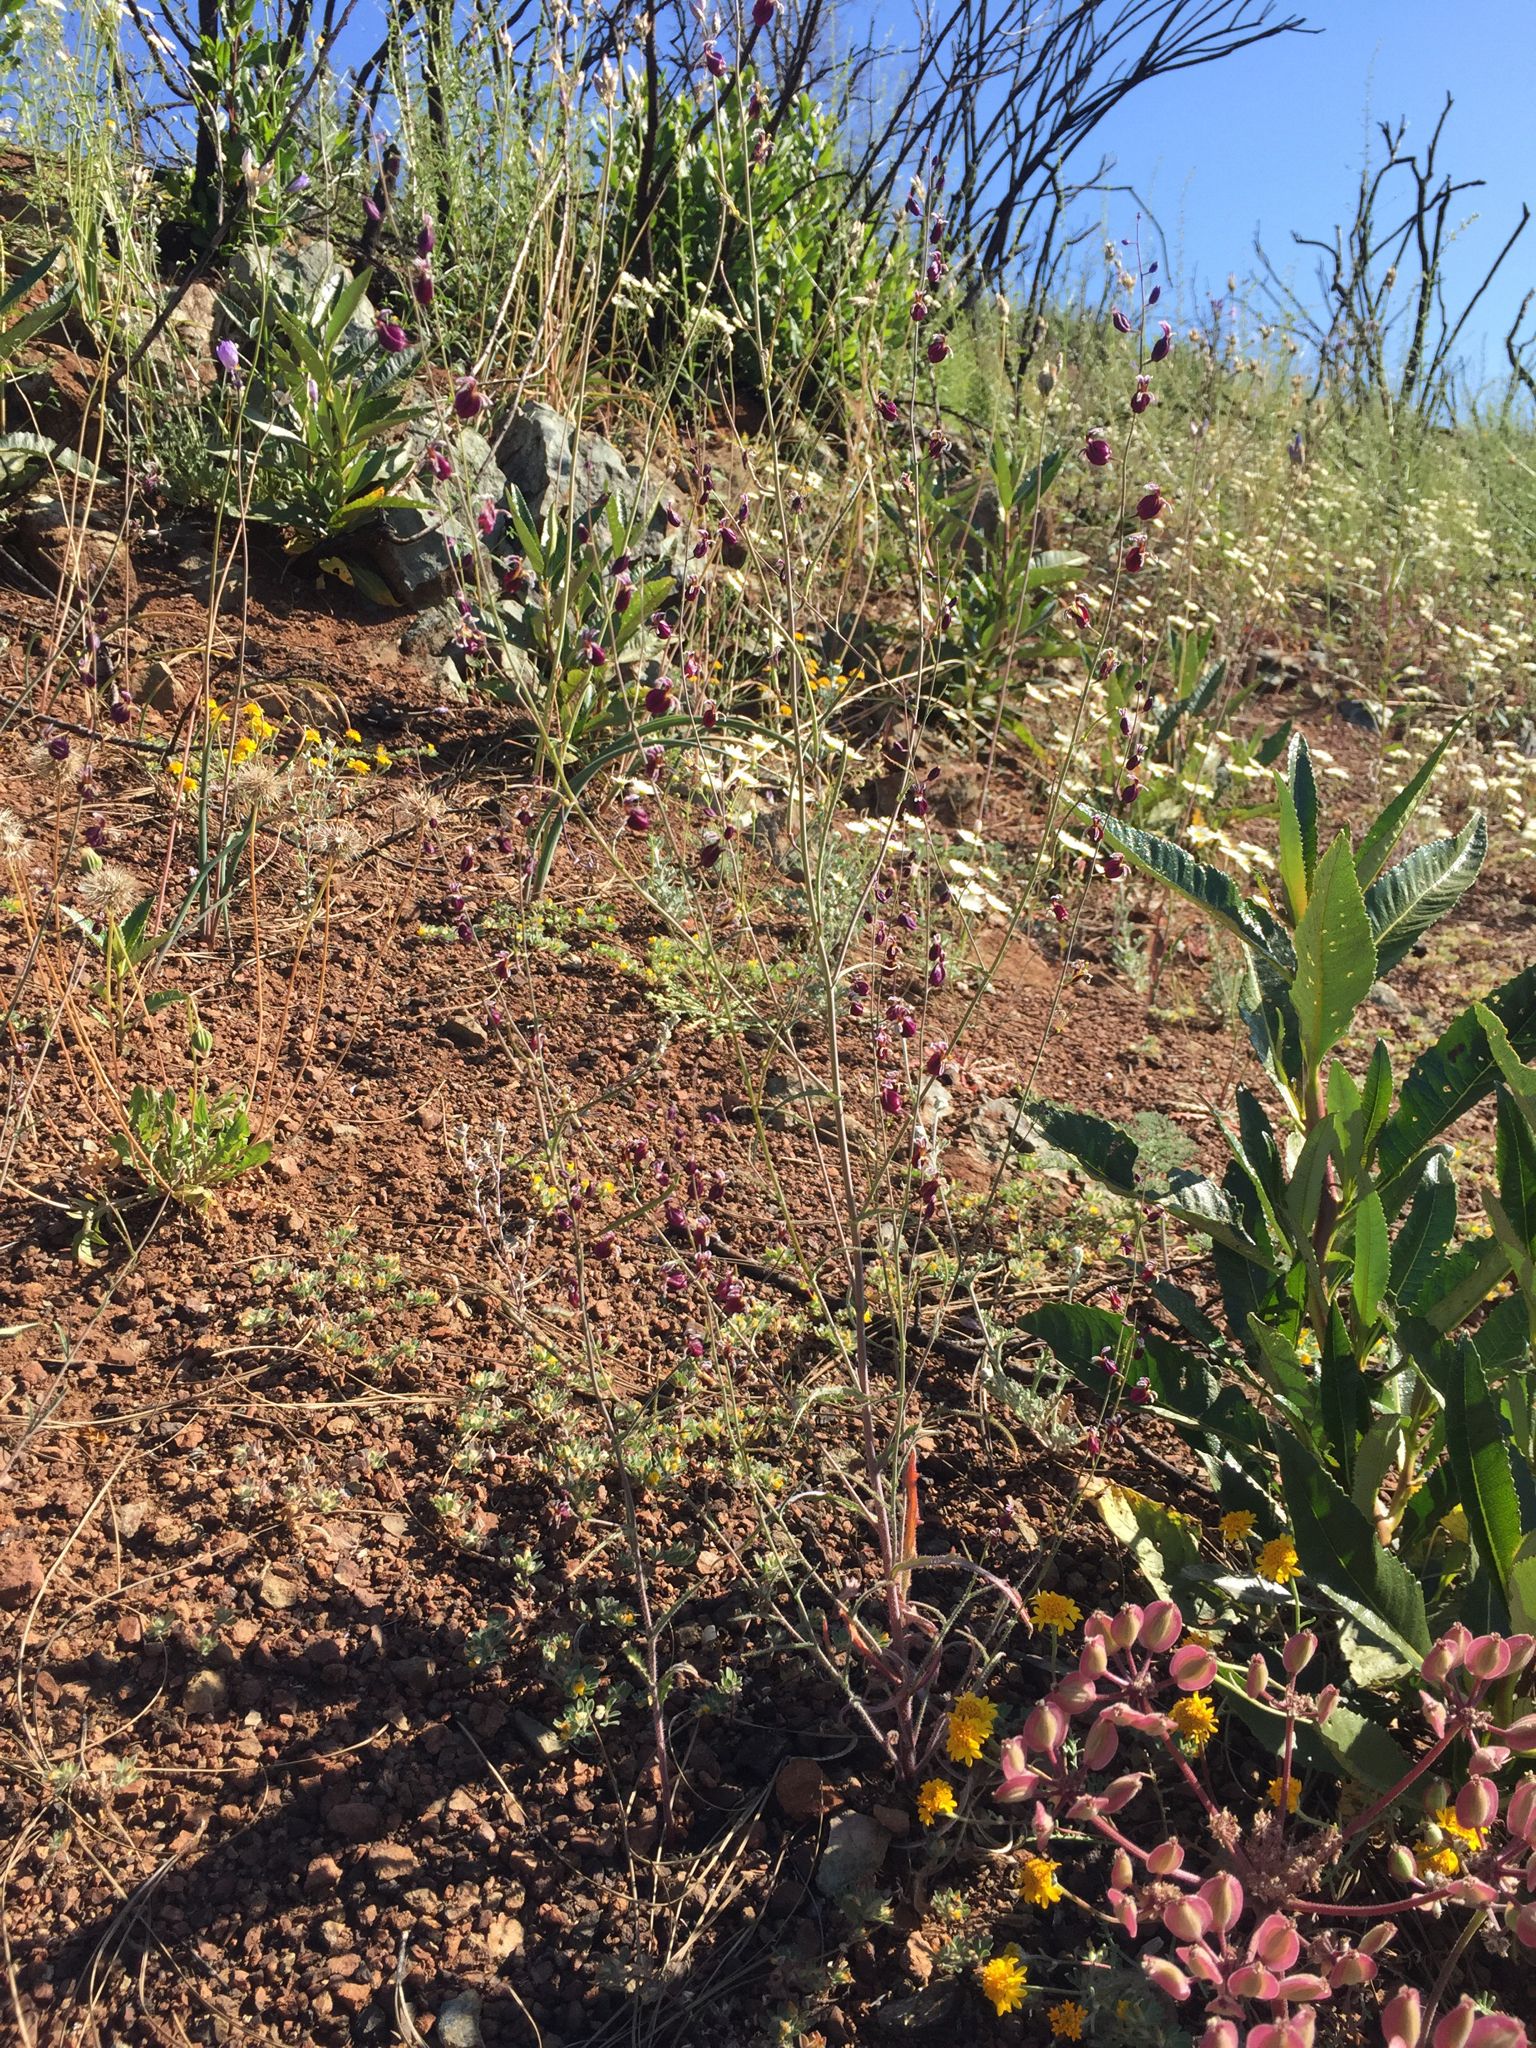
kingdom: Plantae
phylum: Tracheophyta
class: Magnoliopsida
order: Brassicales
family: Brassicaceae
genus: Streptanthus
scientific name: Streptanthus glandulosus
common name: Jewel-flower
